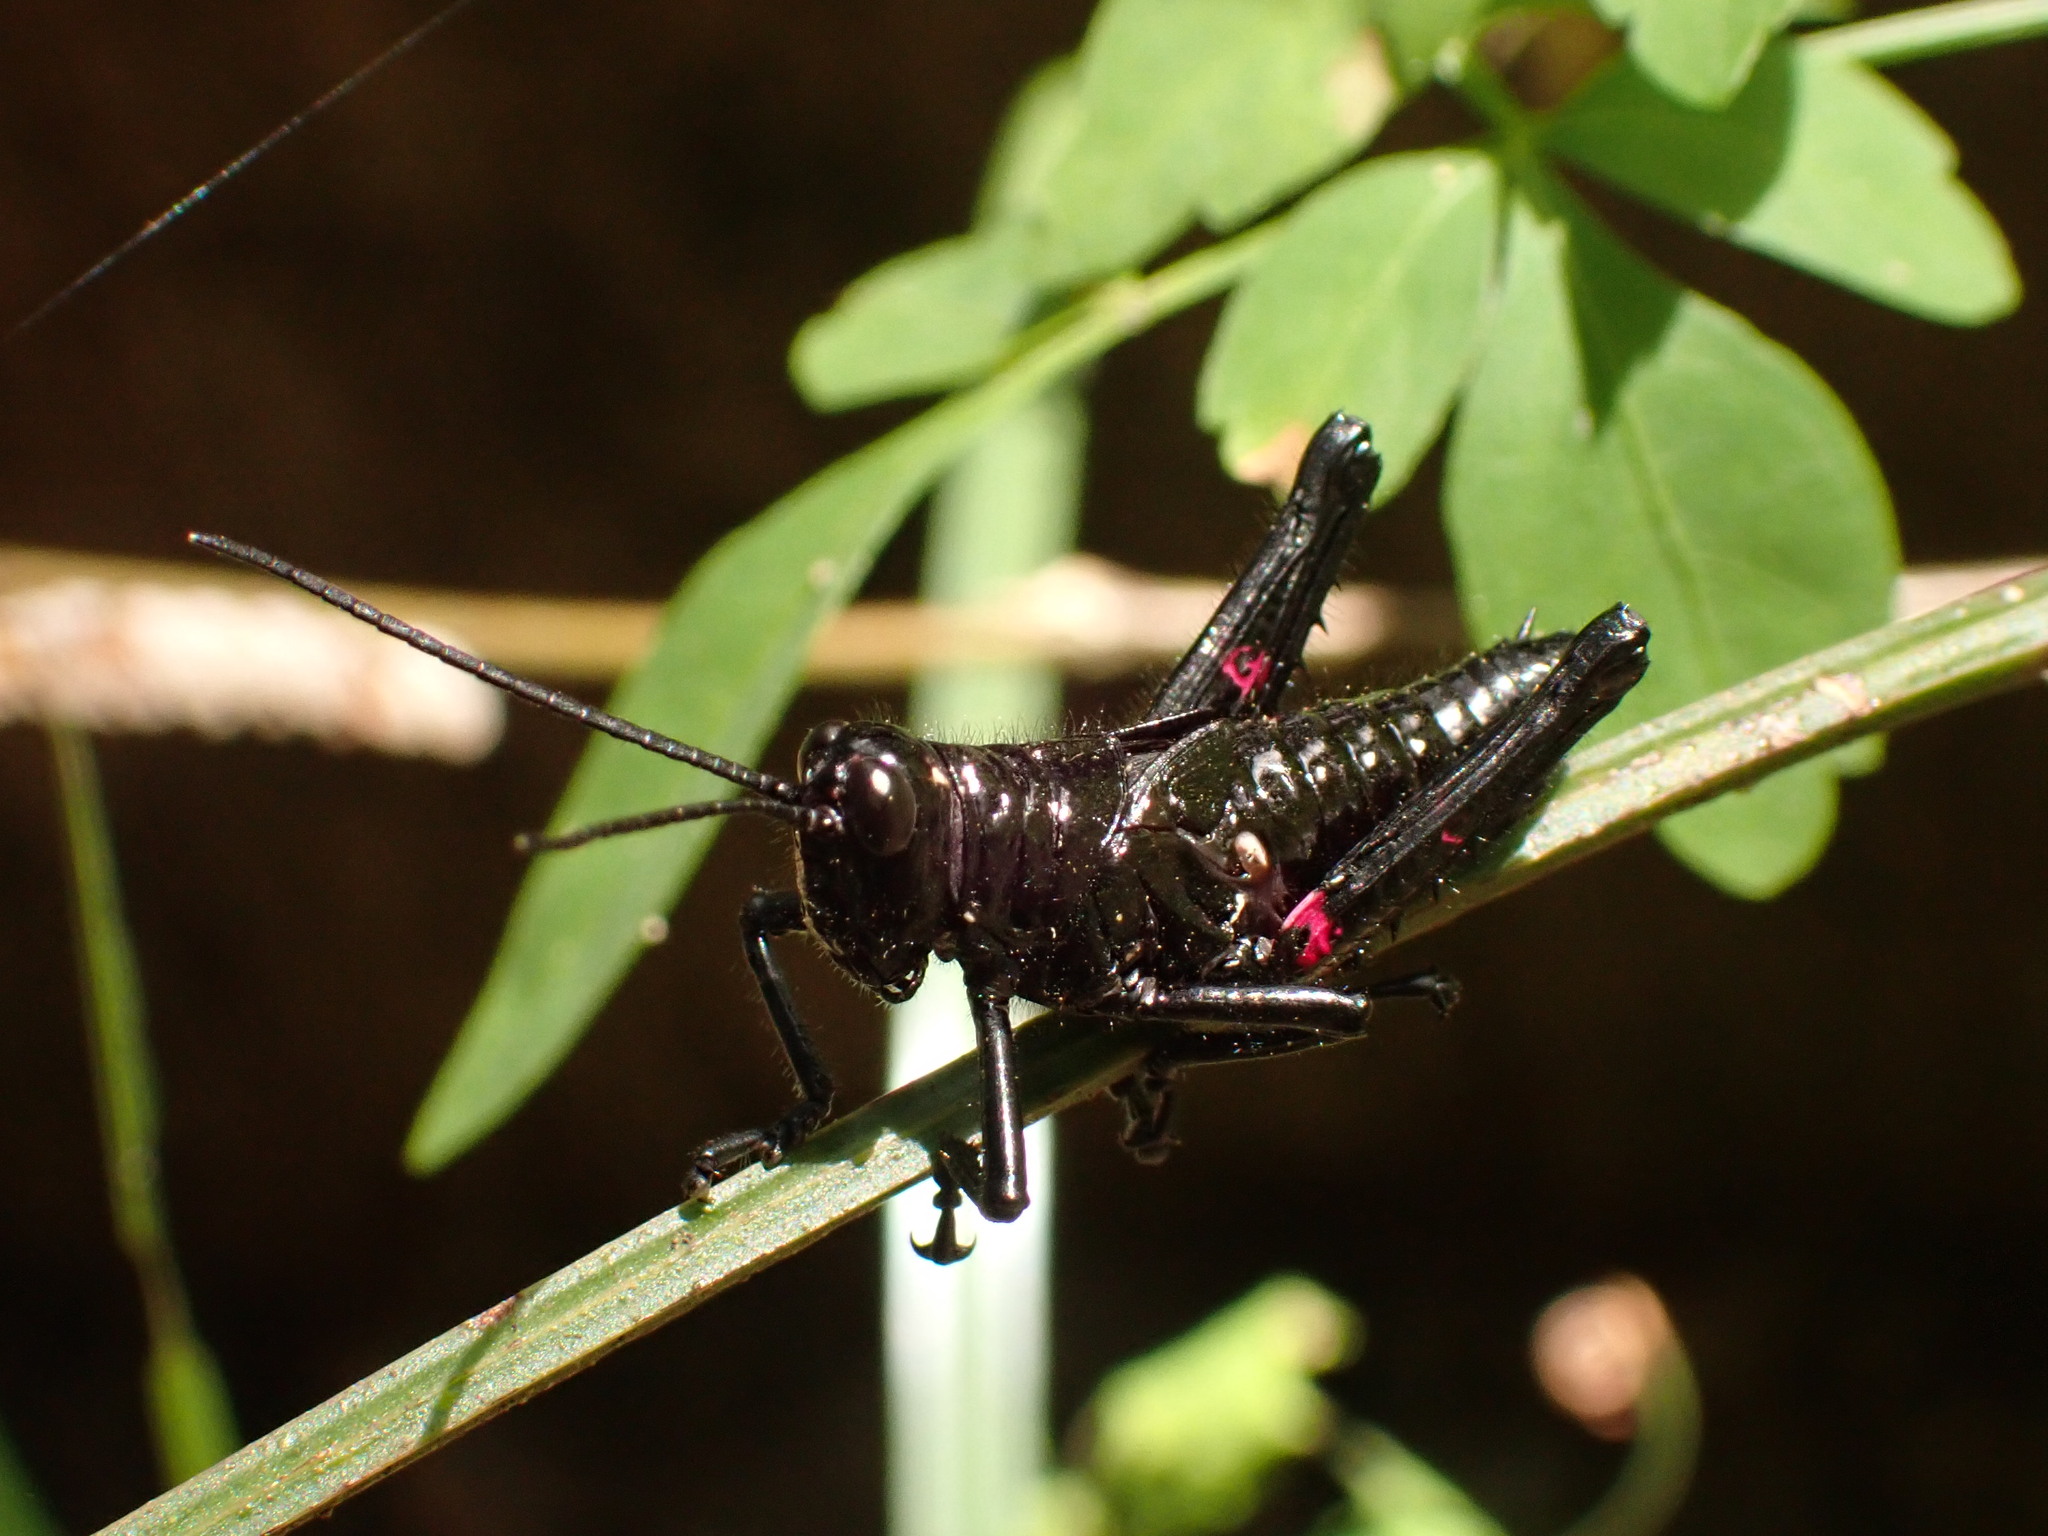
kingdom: Animalia
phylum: Arthropoda
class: Insecta
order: Orthoptera
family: Romaleidae
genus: Chromacris
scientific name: Chromacris speciosa
